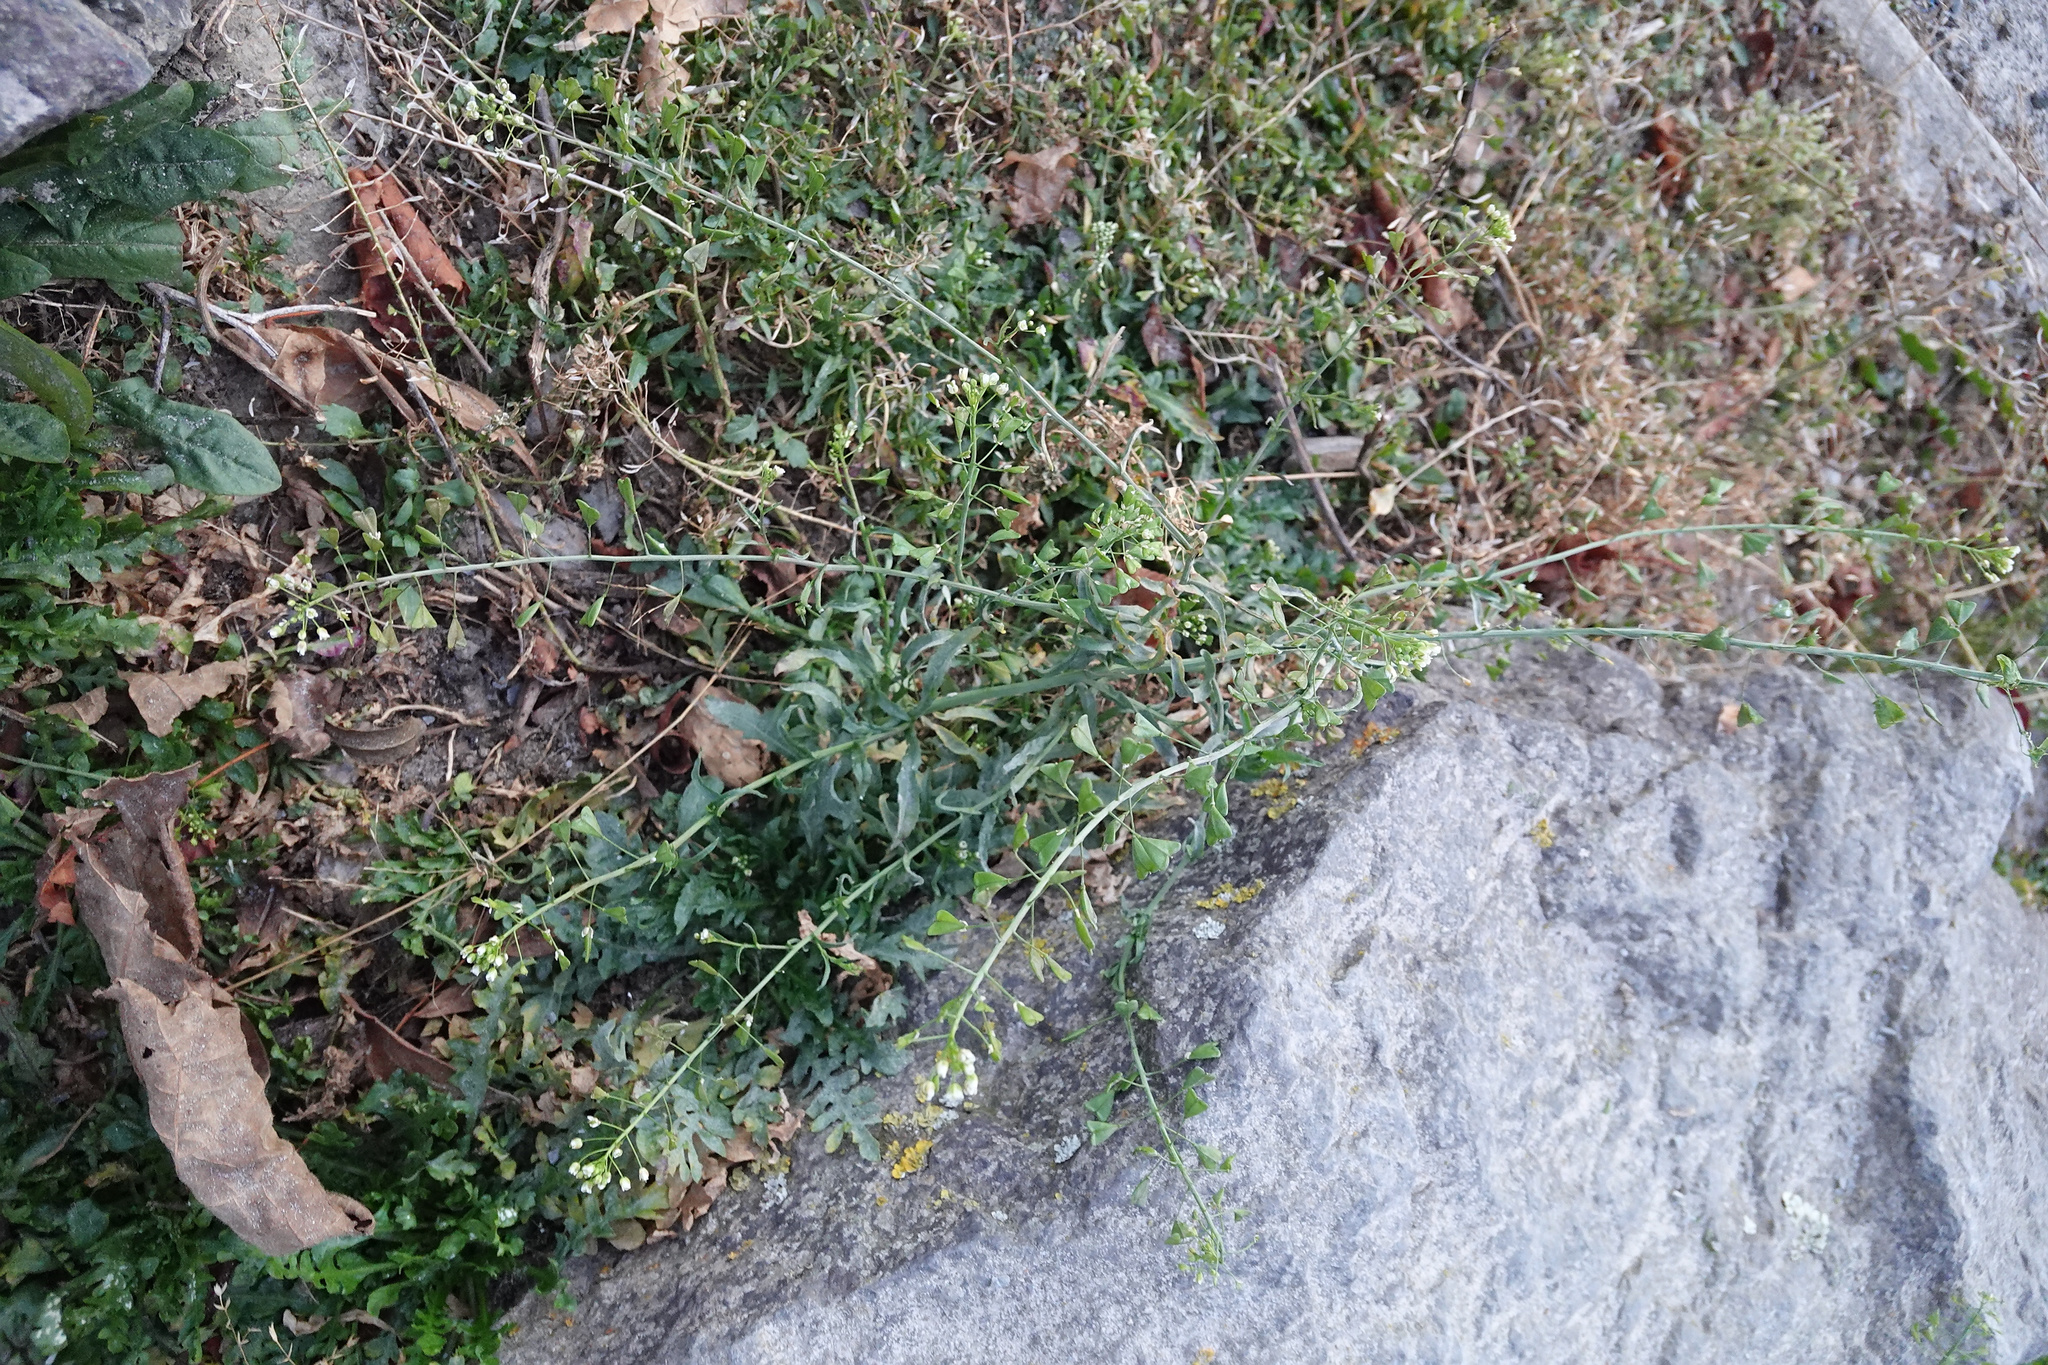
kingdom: Plantae
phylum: Tracheophyta
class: Magnoliopsida
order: Brassicales
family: Brassicaceae
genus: Capsella
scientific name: Capsella bursa-pastoris
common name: Shepherd's purse
